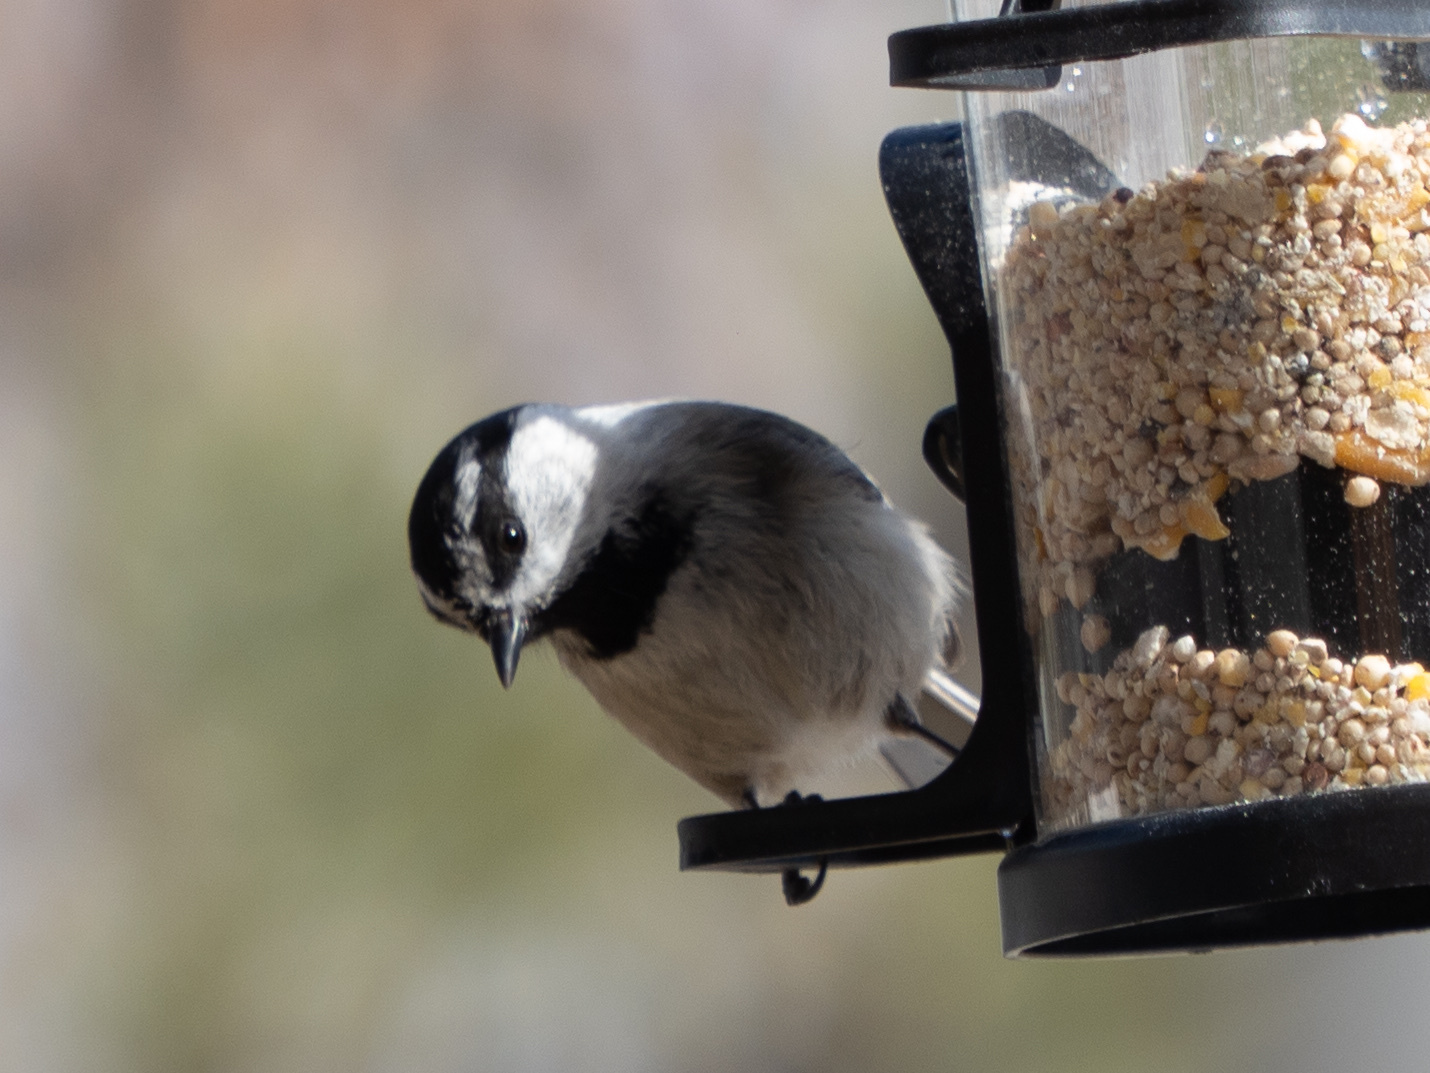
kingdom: Animalia
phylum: Chordata
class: Aves
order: Passeriformes
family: Paridae
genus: Poecile
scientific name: Poecile gambeli
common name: Mountain chickadee
